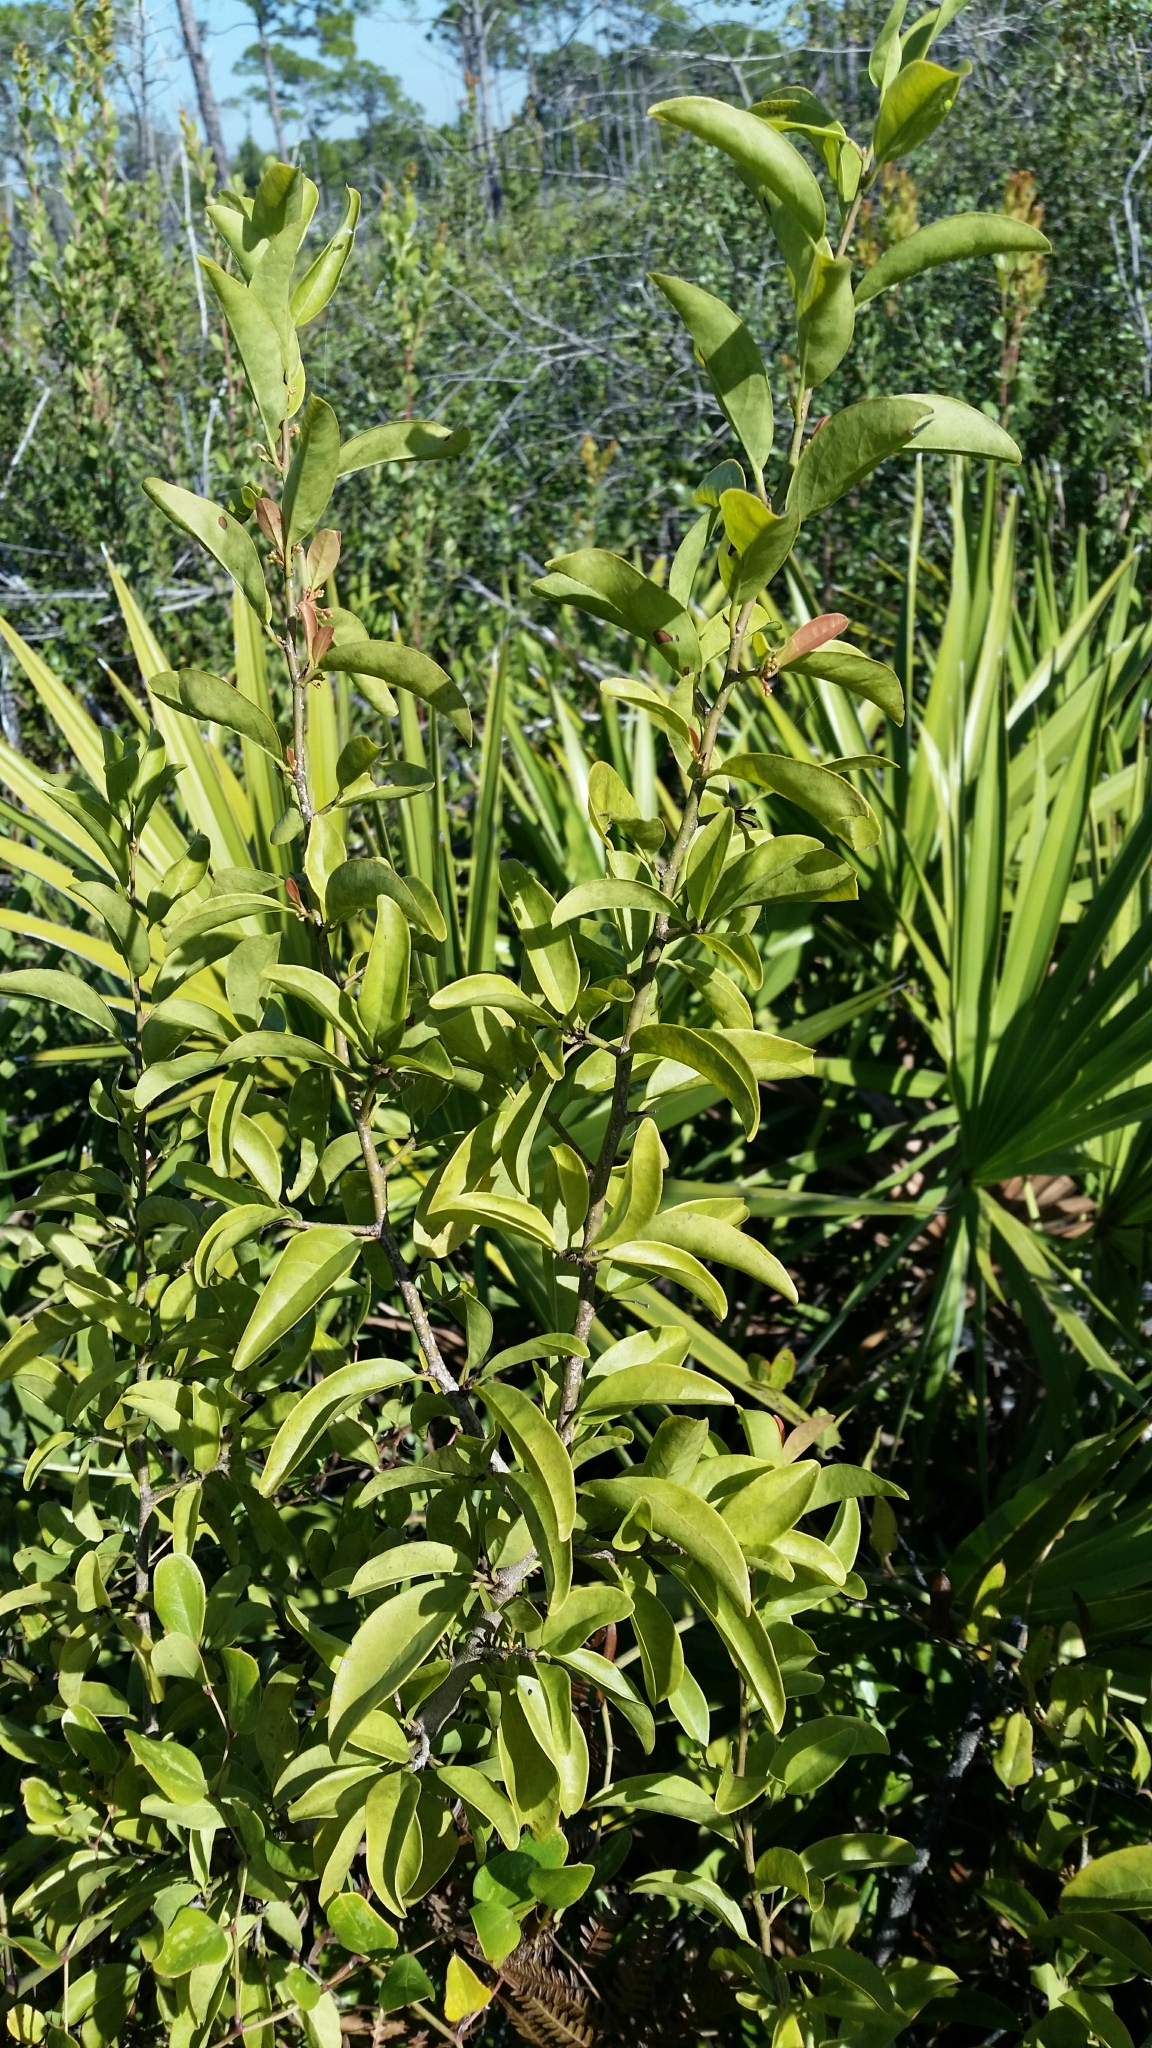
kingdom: Plantae
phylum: Tracheophyta
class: Magnoliopsida
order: Santalales
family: Ximeniaceae
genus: Ximenia
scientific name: Ximenia americana
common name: Tallowwood
